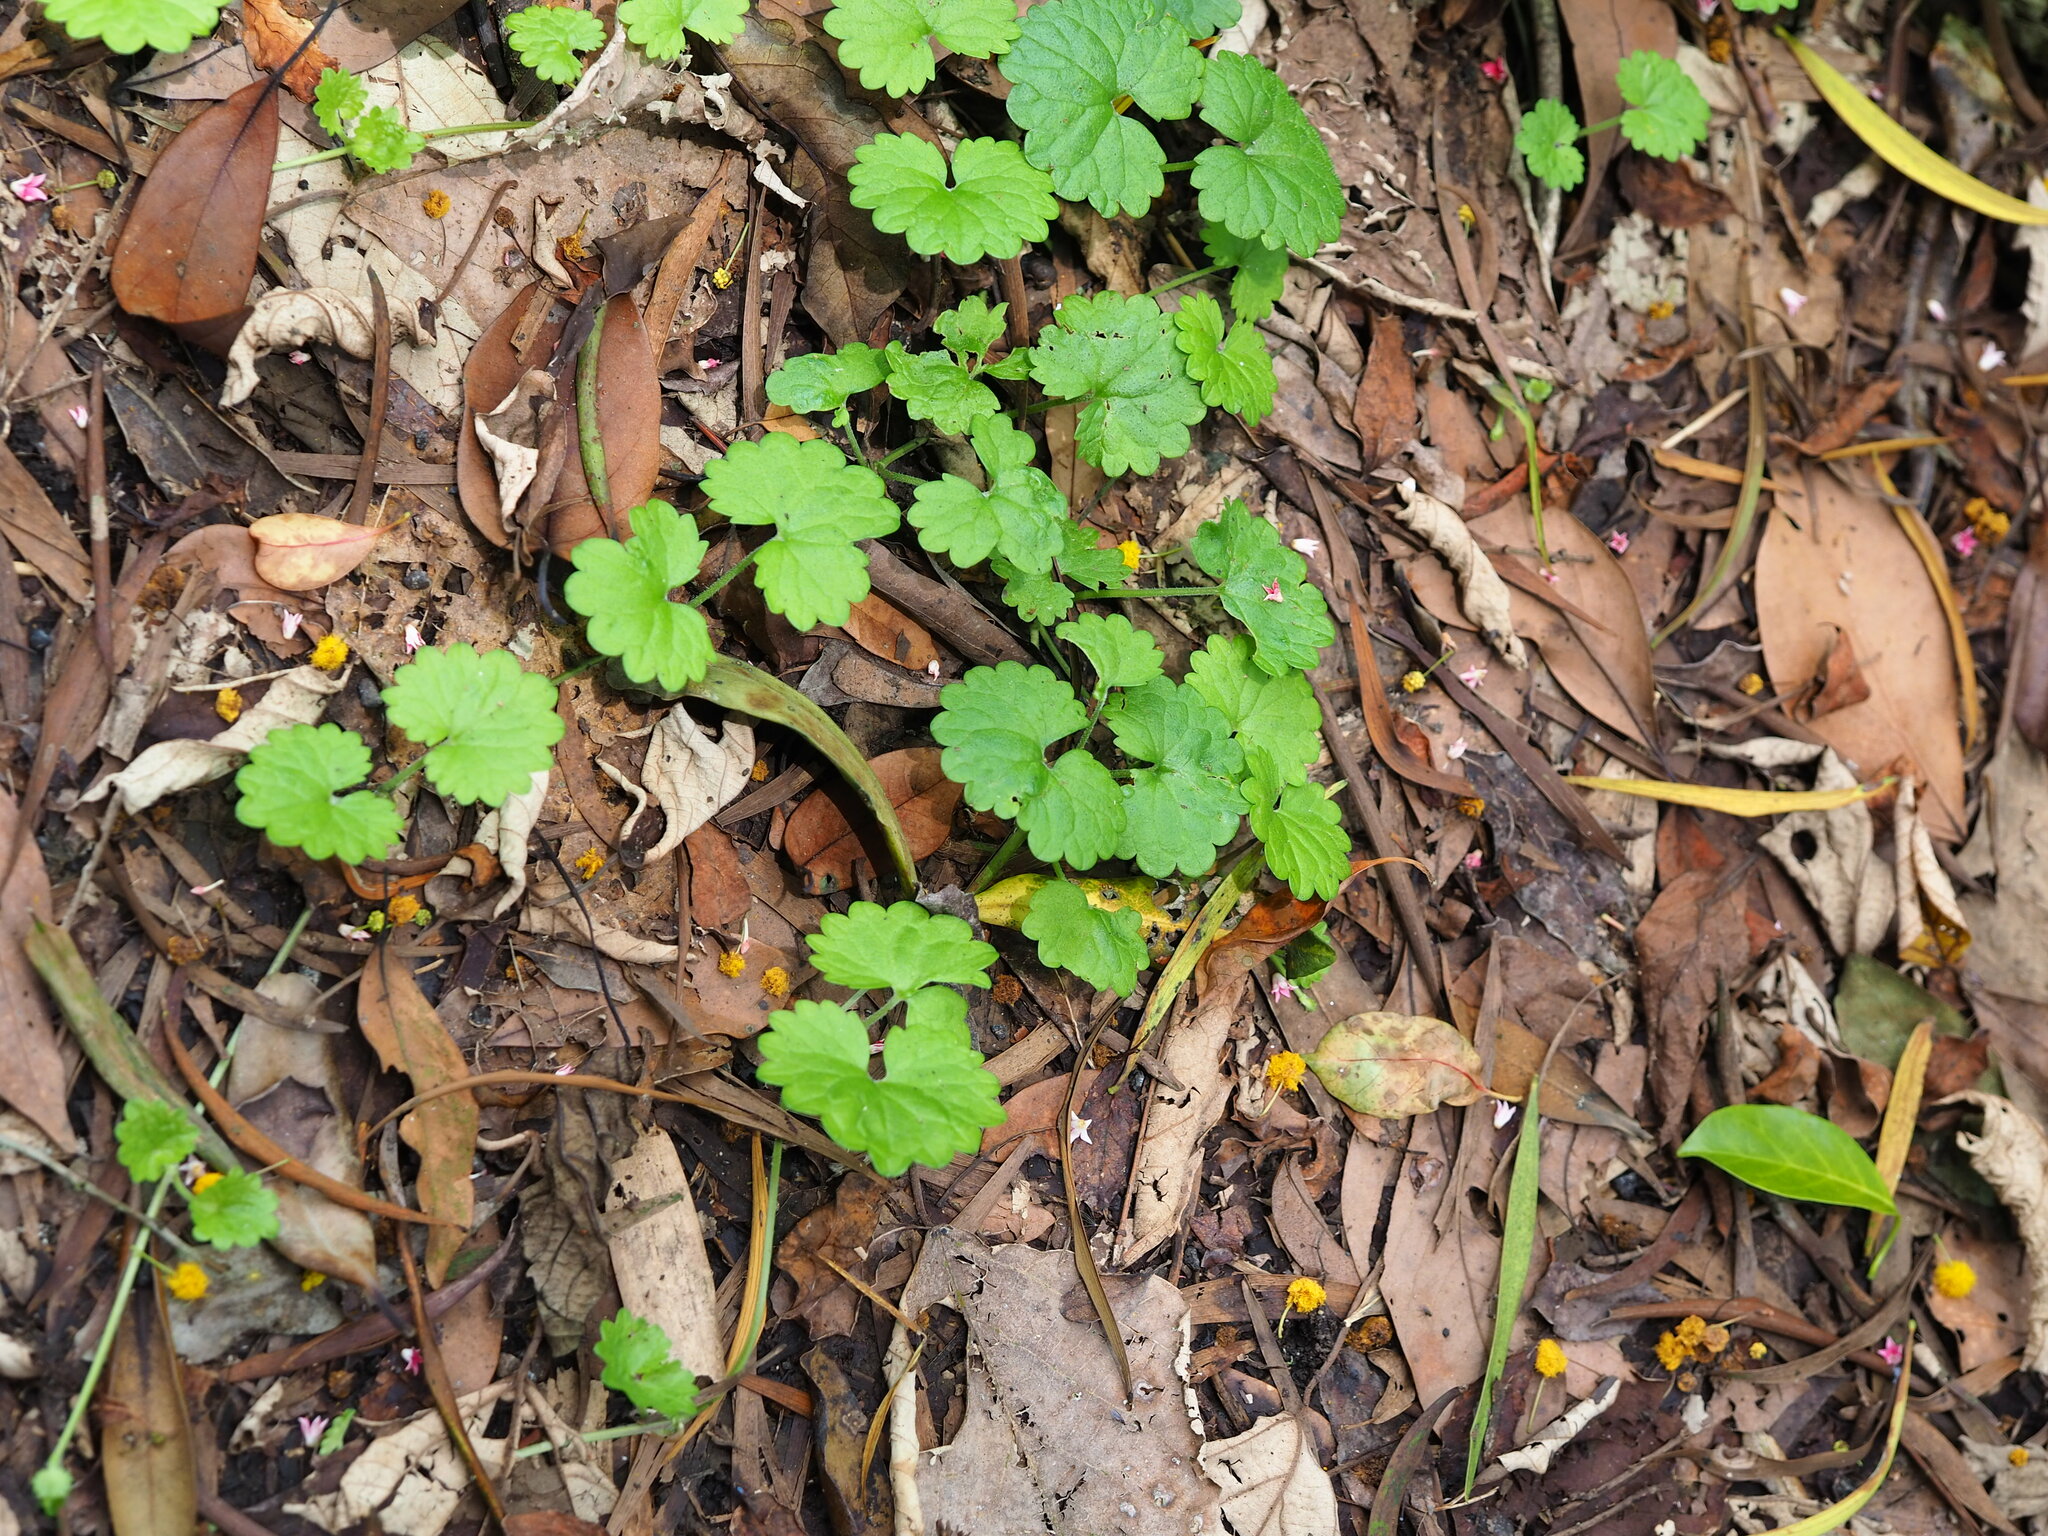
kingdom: Plantae
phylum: Tracheophyta
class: Magnoliopsida
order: Lamiales
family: Lamiaceae
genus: Glechoma
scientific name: Glechoma grandis
